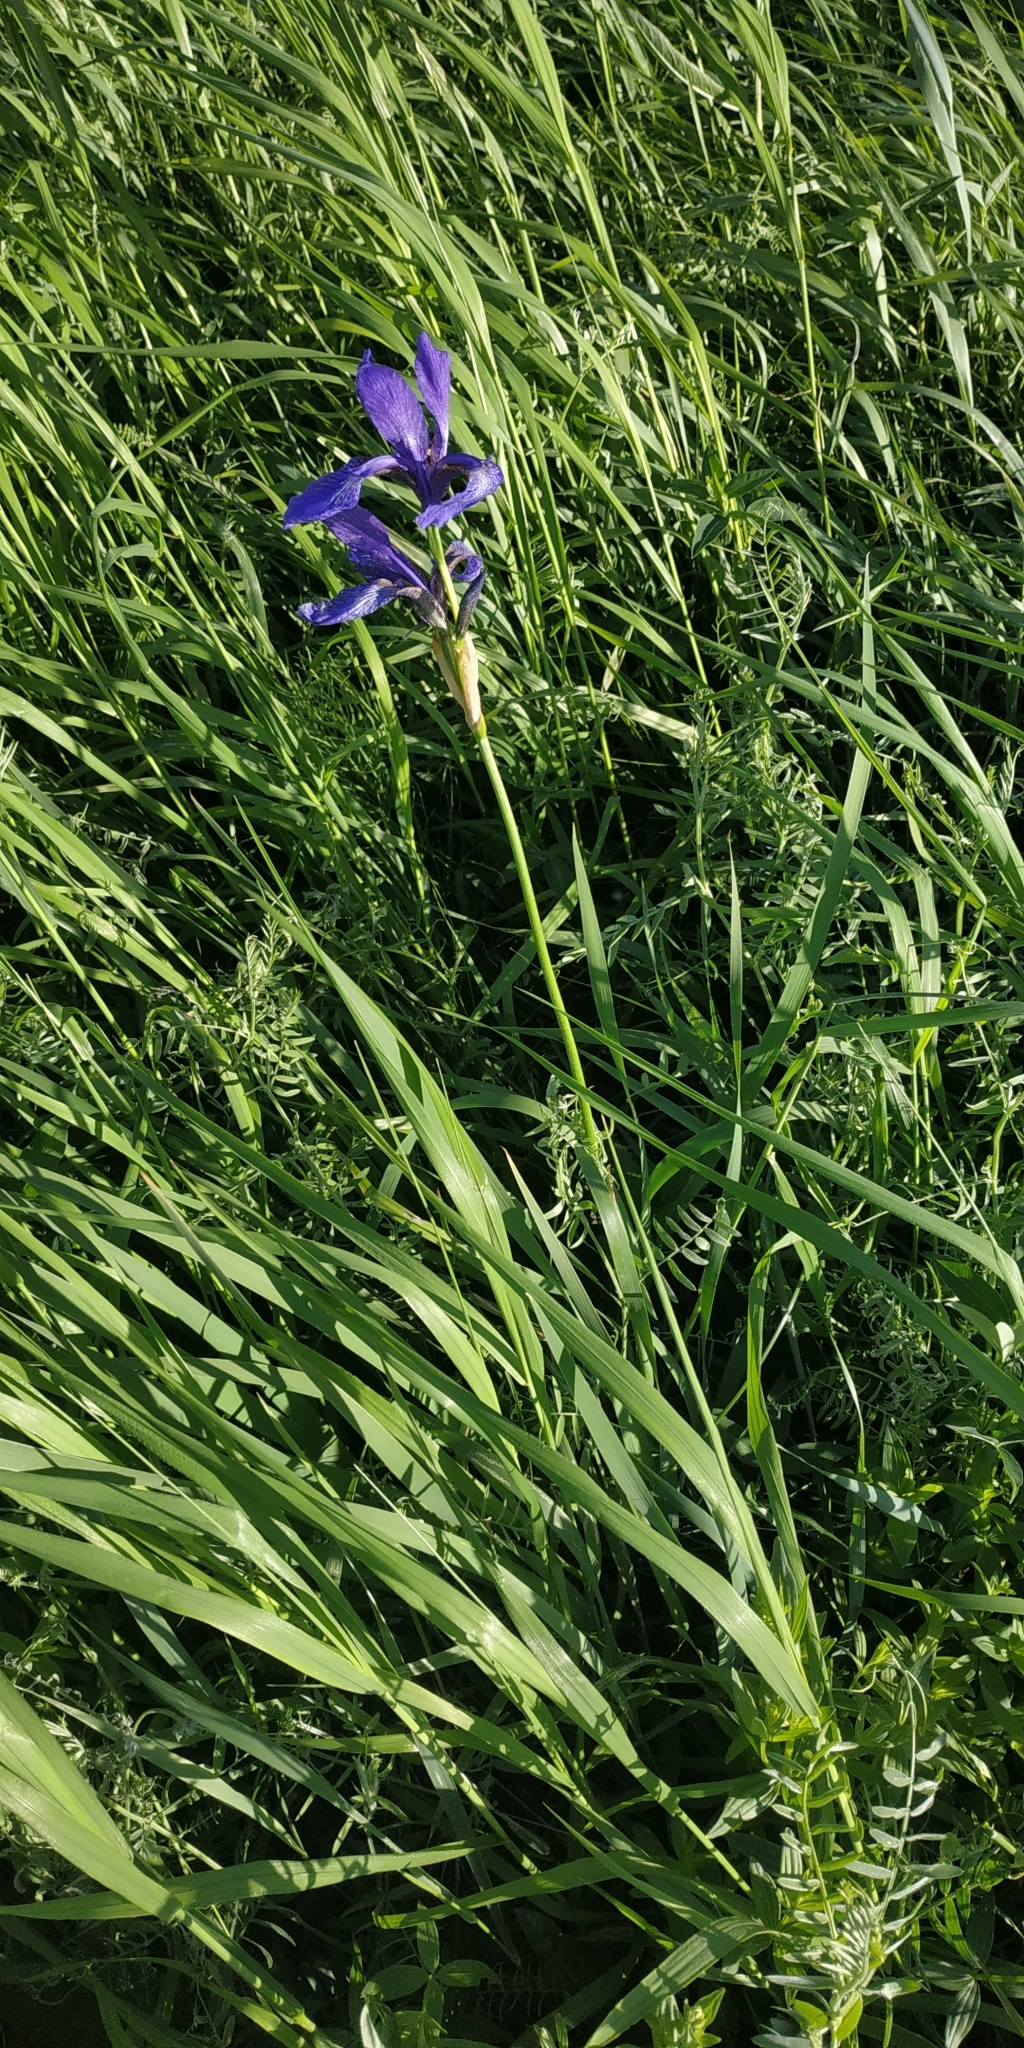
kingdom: Plantae
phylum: Tracheophyta
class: Liliopsida
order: Asparagales
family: Iridaceae
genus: Iris
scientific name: Iris sibirica
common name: Siberian iris
